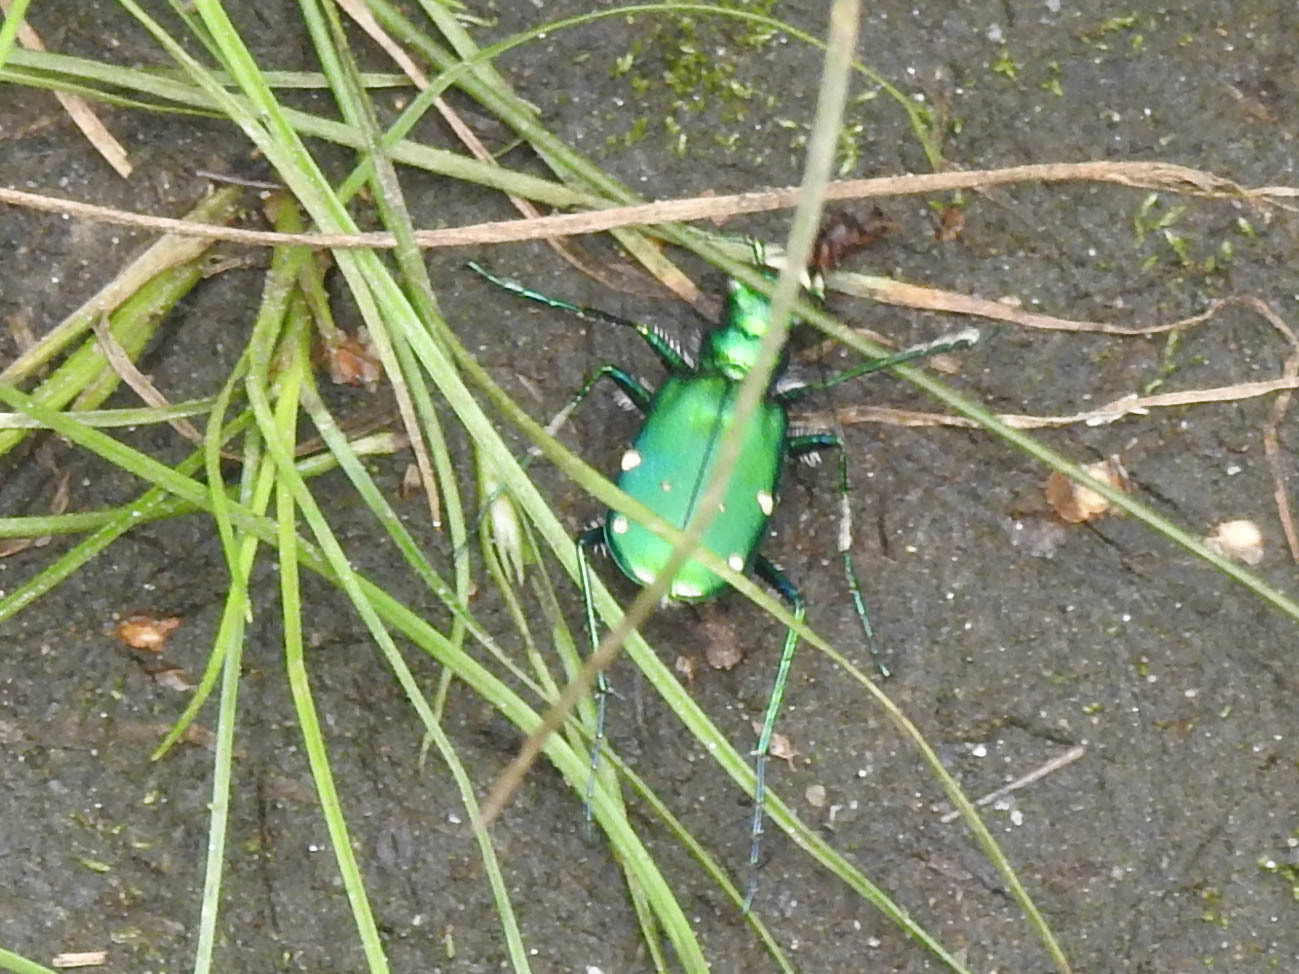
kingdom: Animalia
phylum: Arthropoda
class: Insecta
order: Coleoptera
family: Carabidae
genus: Cicindela
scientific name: Cicindela sexguttata
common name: Six-spotted tiger beetle
